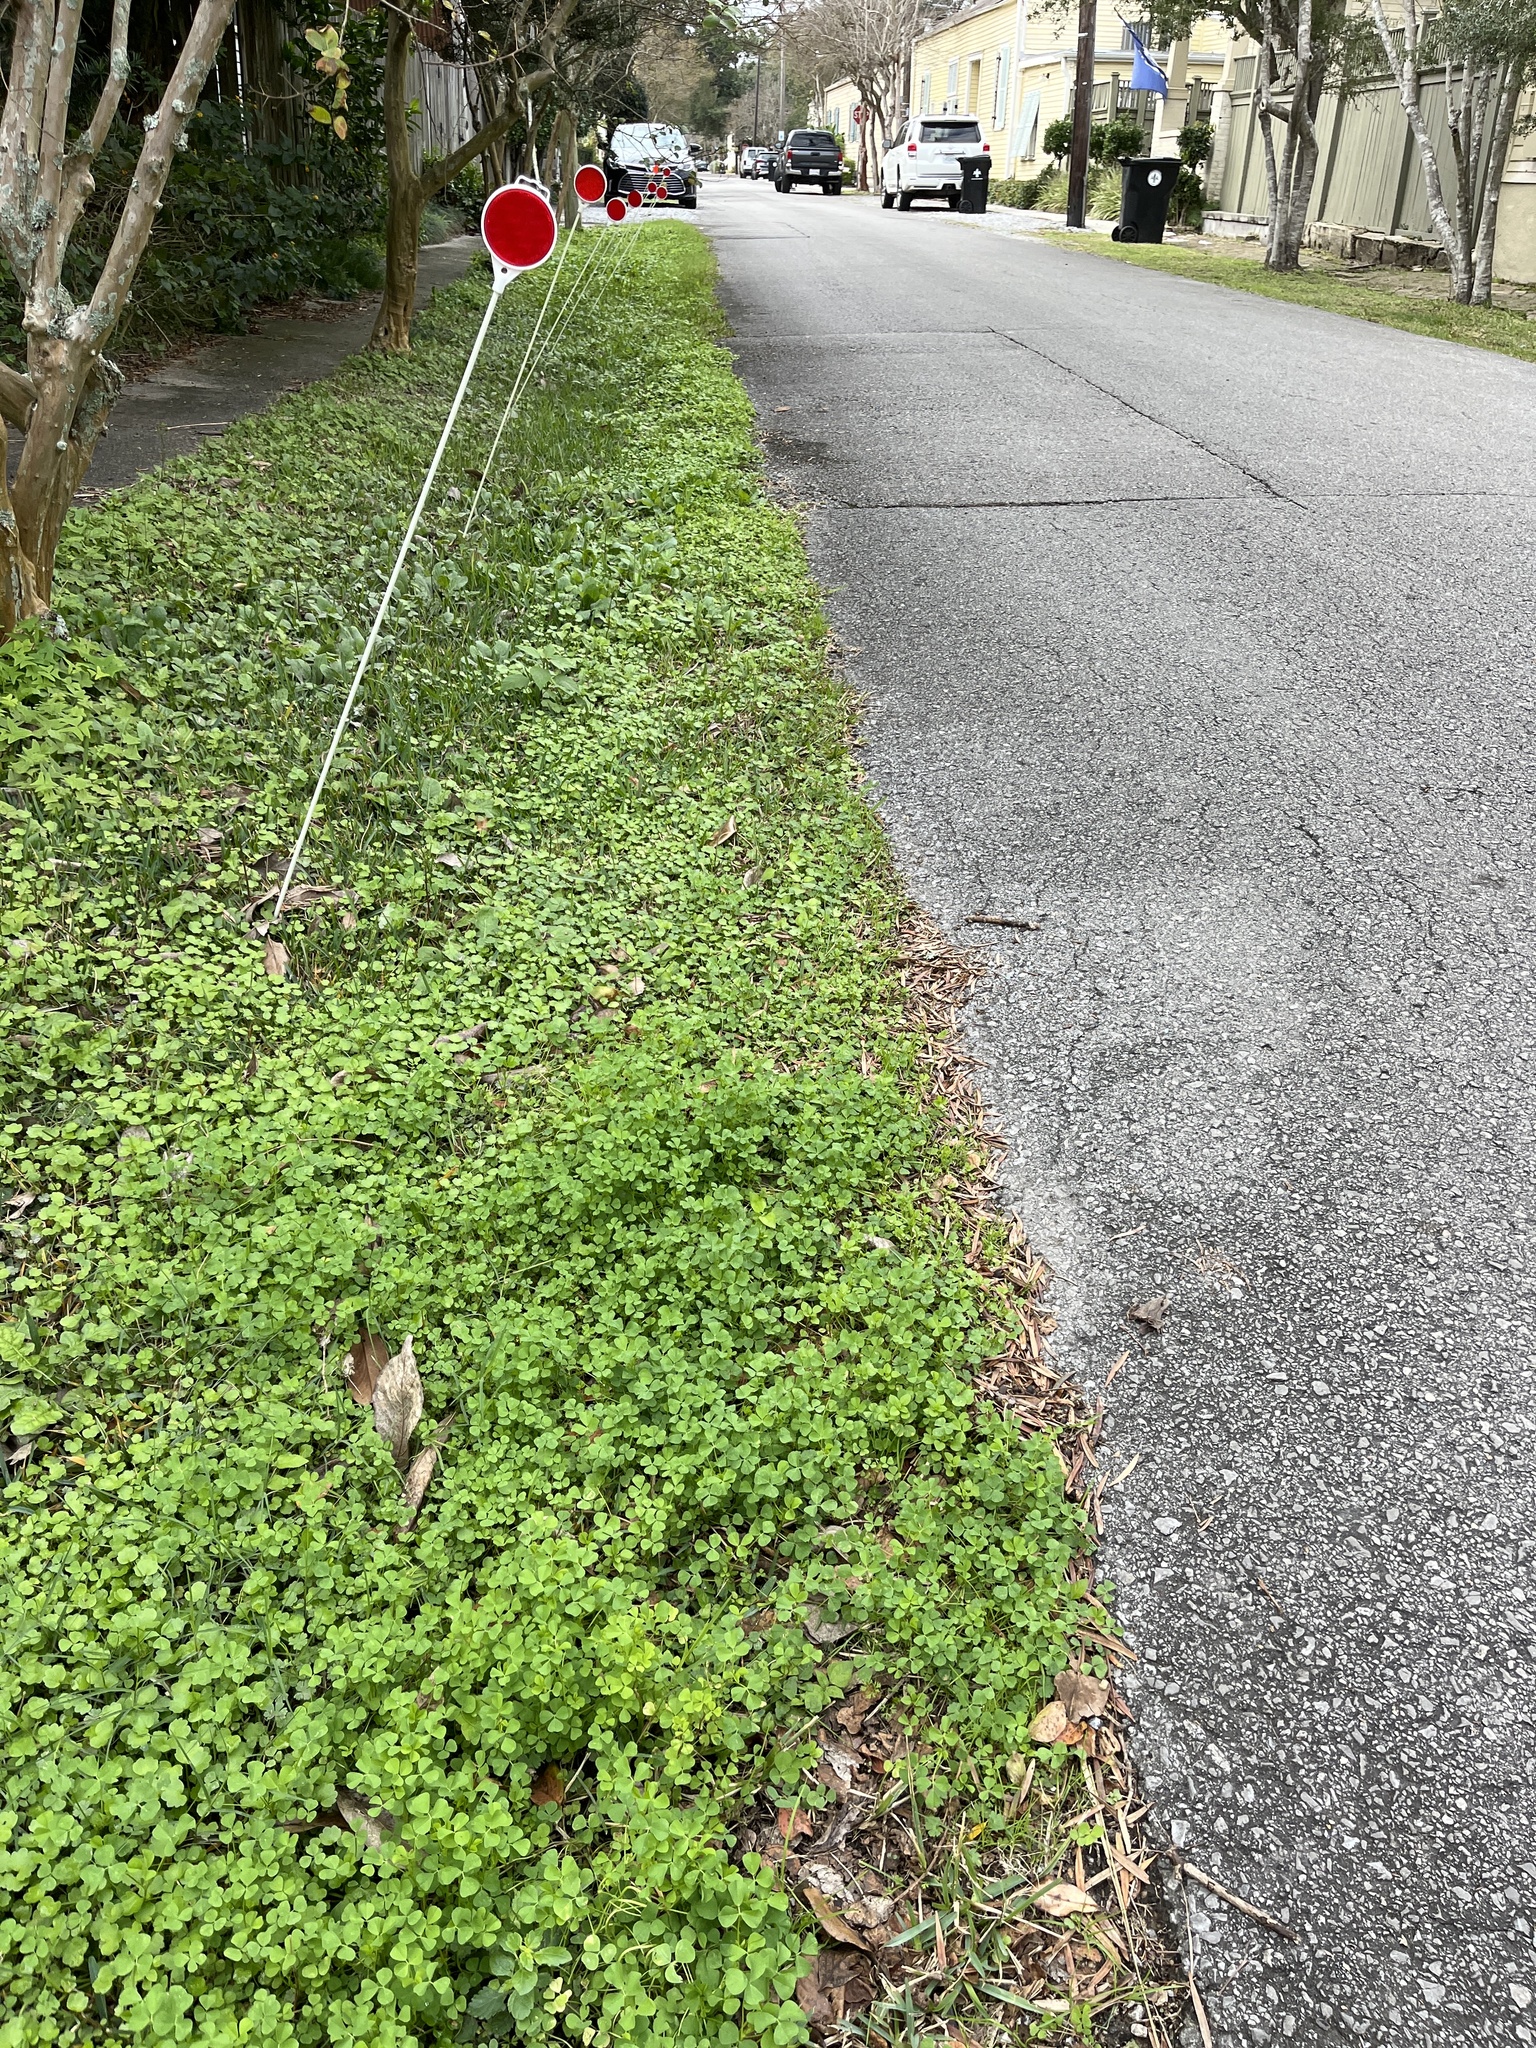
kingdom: Plantae
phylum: Tracheophyta
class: Magnoliopsida
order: Fabales
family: Fabaceae
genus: Medicago
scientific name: Medicago polymorpha
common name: Burclover
